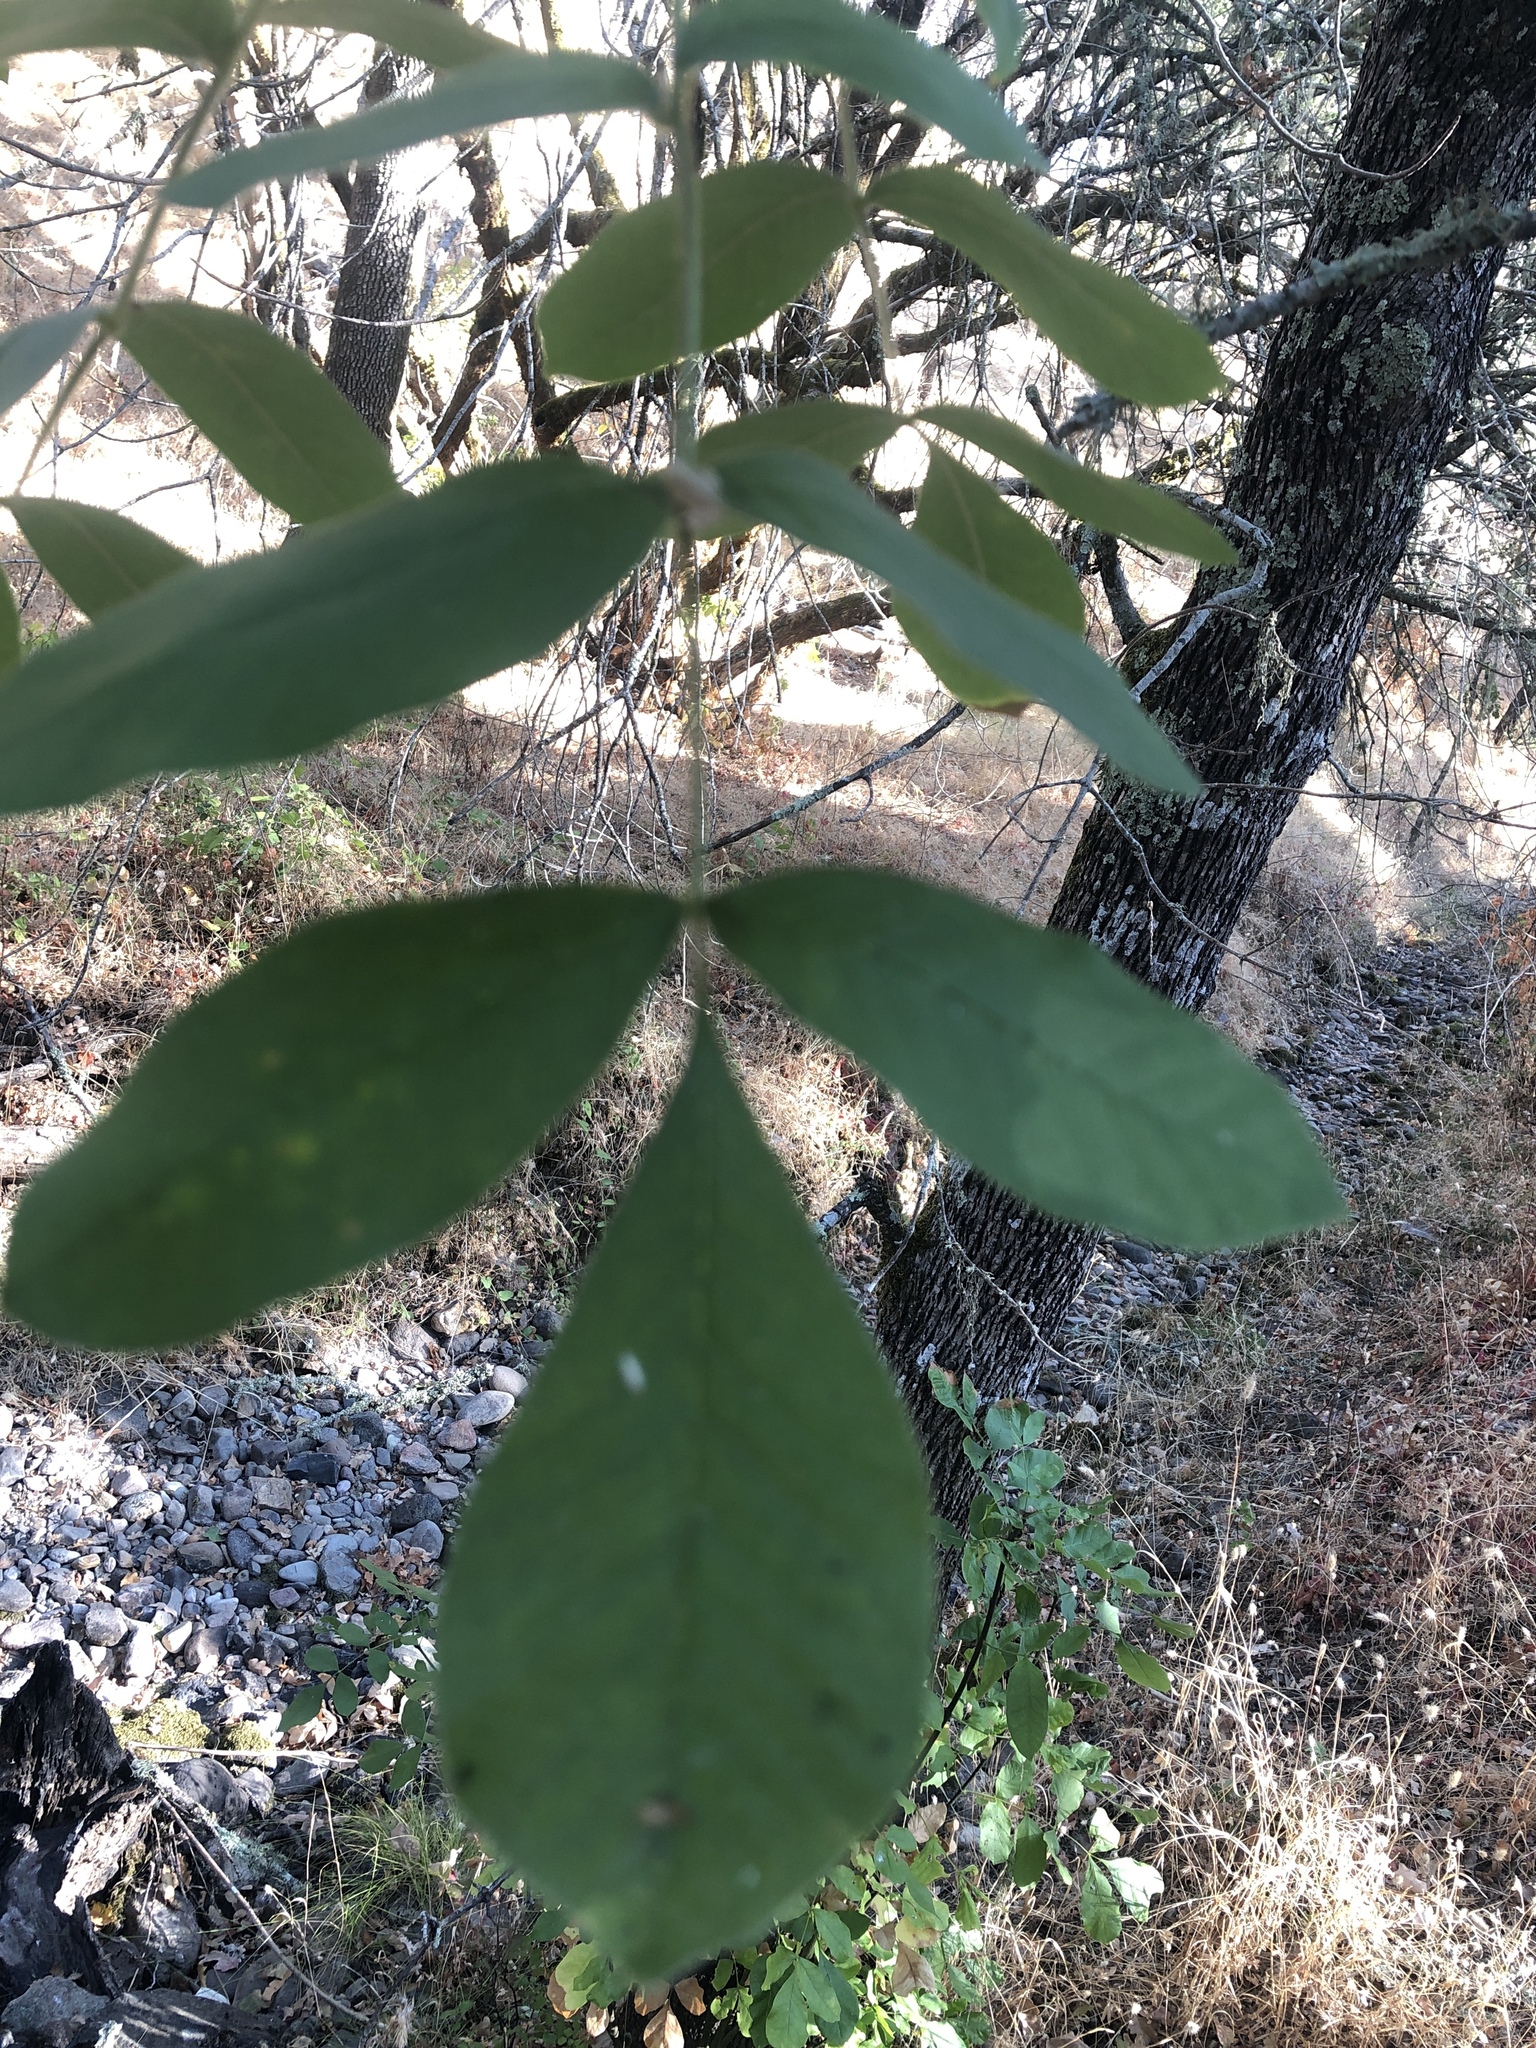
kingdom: Plantae
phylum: Tracheophyta
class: Magnoliopsida
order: Lamiales
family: Oleaceae
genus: Fraxinus
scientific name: Fraxinus latifolia
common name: Oregon ash
